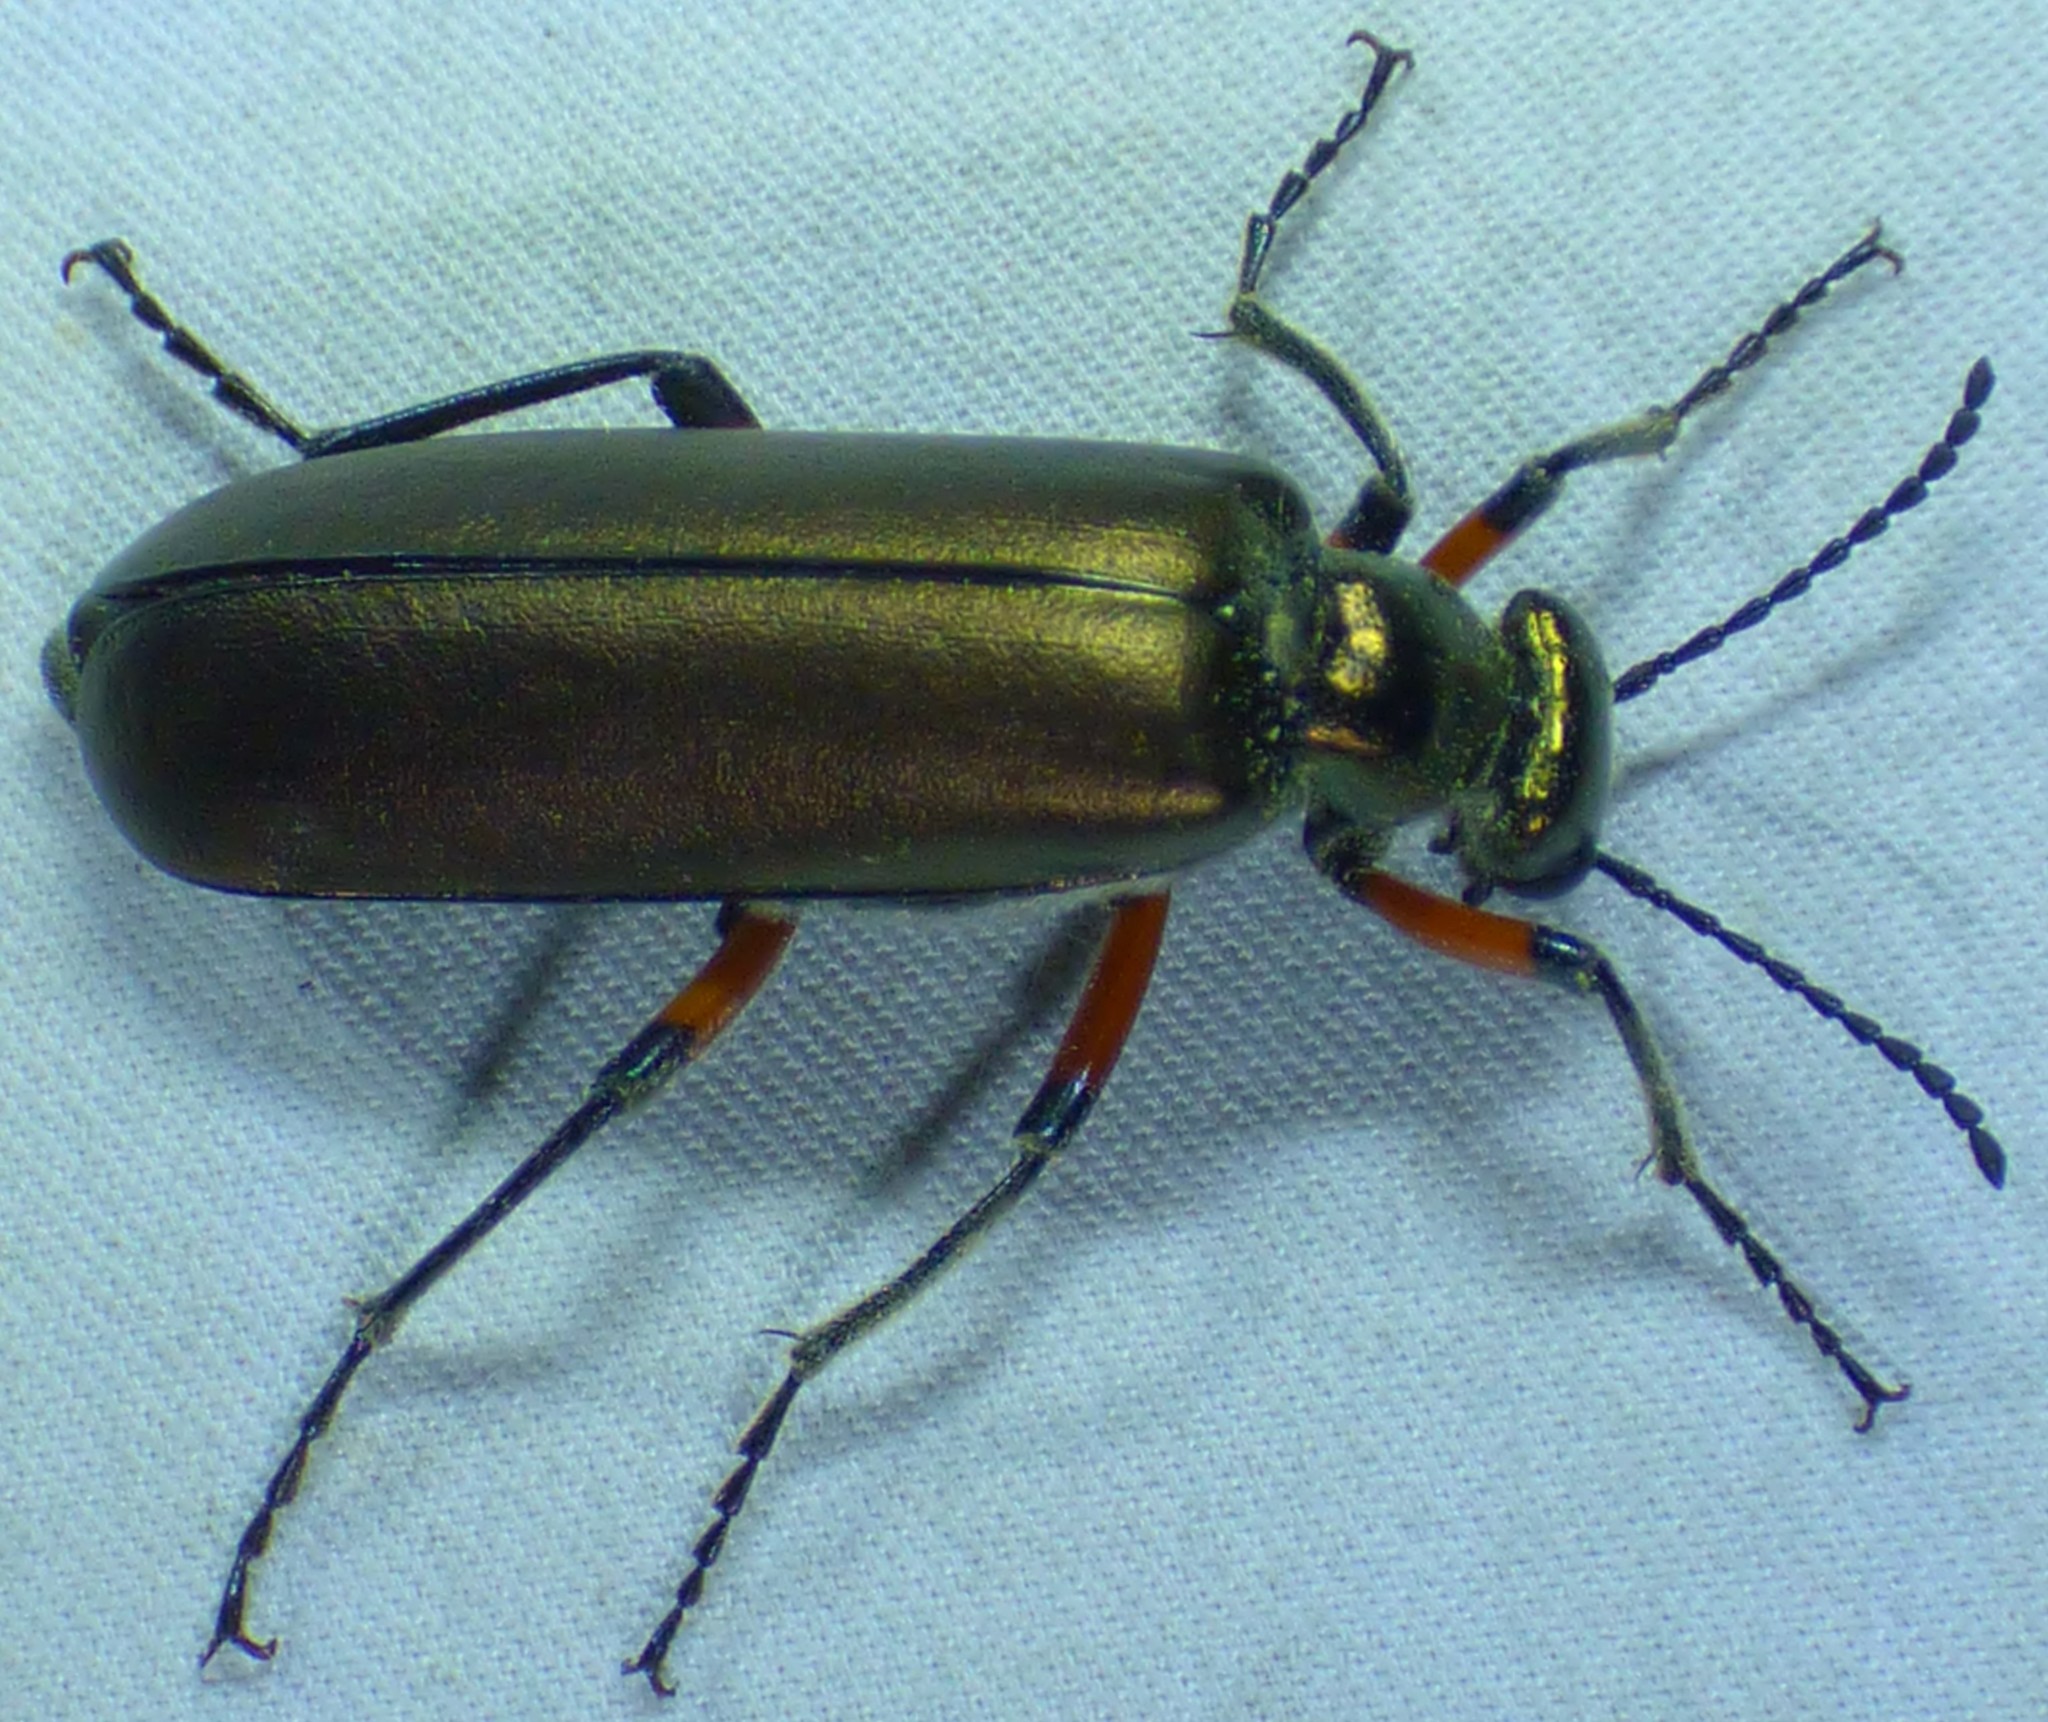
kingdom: Animalia
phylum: Arthropoda
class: Insecta
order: Coleoptera
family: Meloidae
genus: Lytta
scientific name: Lytta polita
